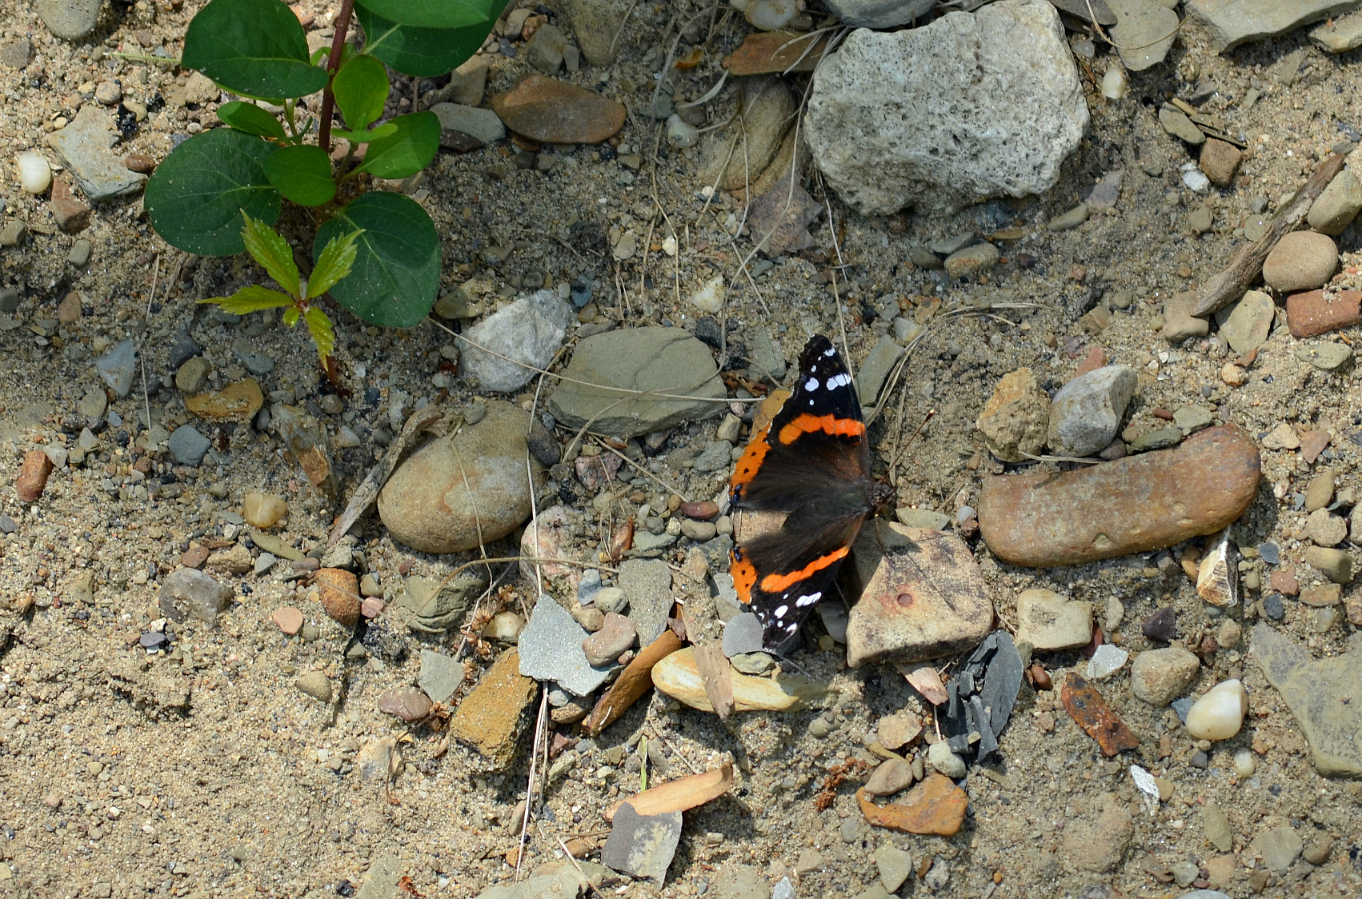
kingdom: Animalia
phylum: Arthropoda
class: Insecta
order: Lepidoptera
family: Nymphalidae
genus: Vanessa
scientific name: Vanessa atalanta
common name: Red admiral
